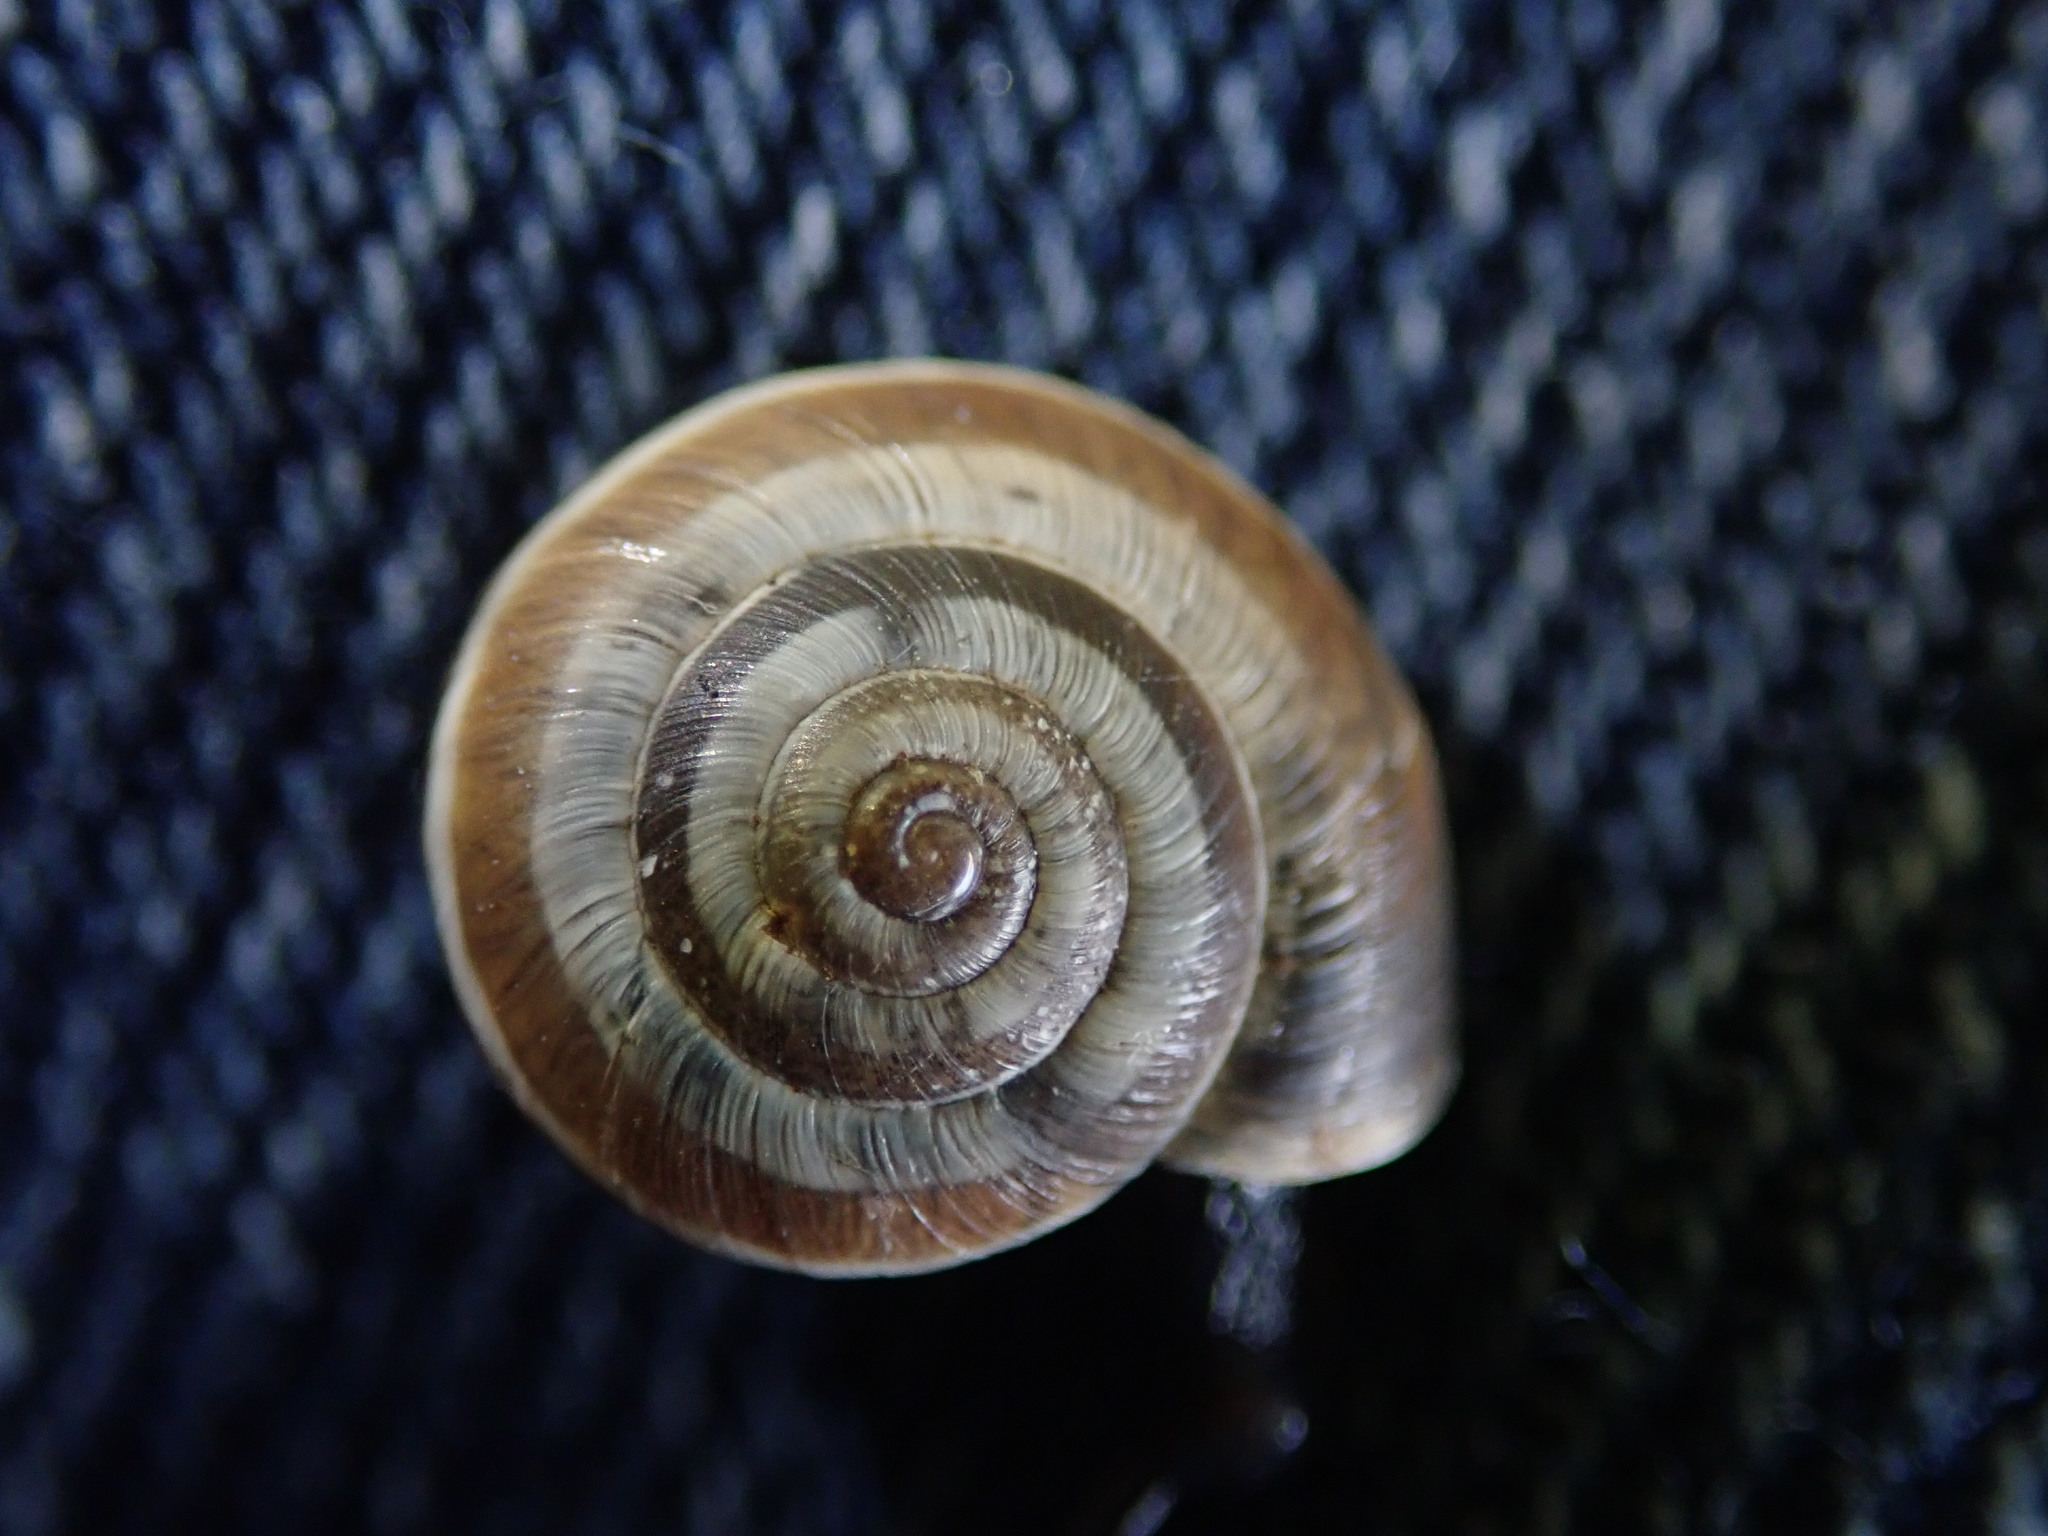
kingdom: Animalia
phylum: Mollusca
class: Gastropoda
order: Stylommatophora
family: Geomitridae
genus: Helicella
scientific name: Helicella itala
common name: Heath snail
